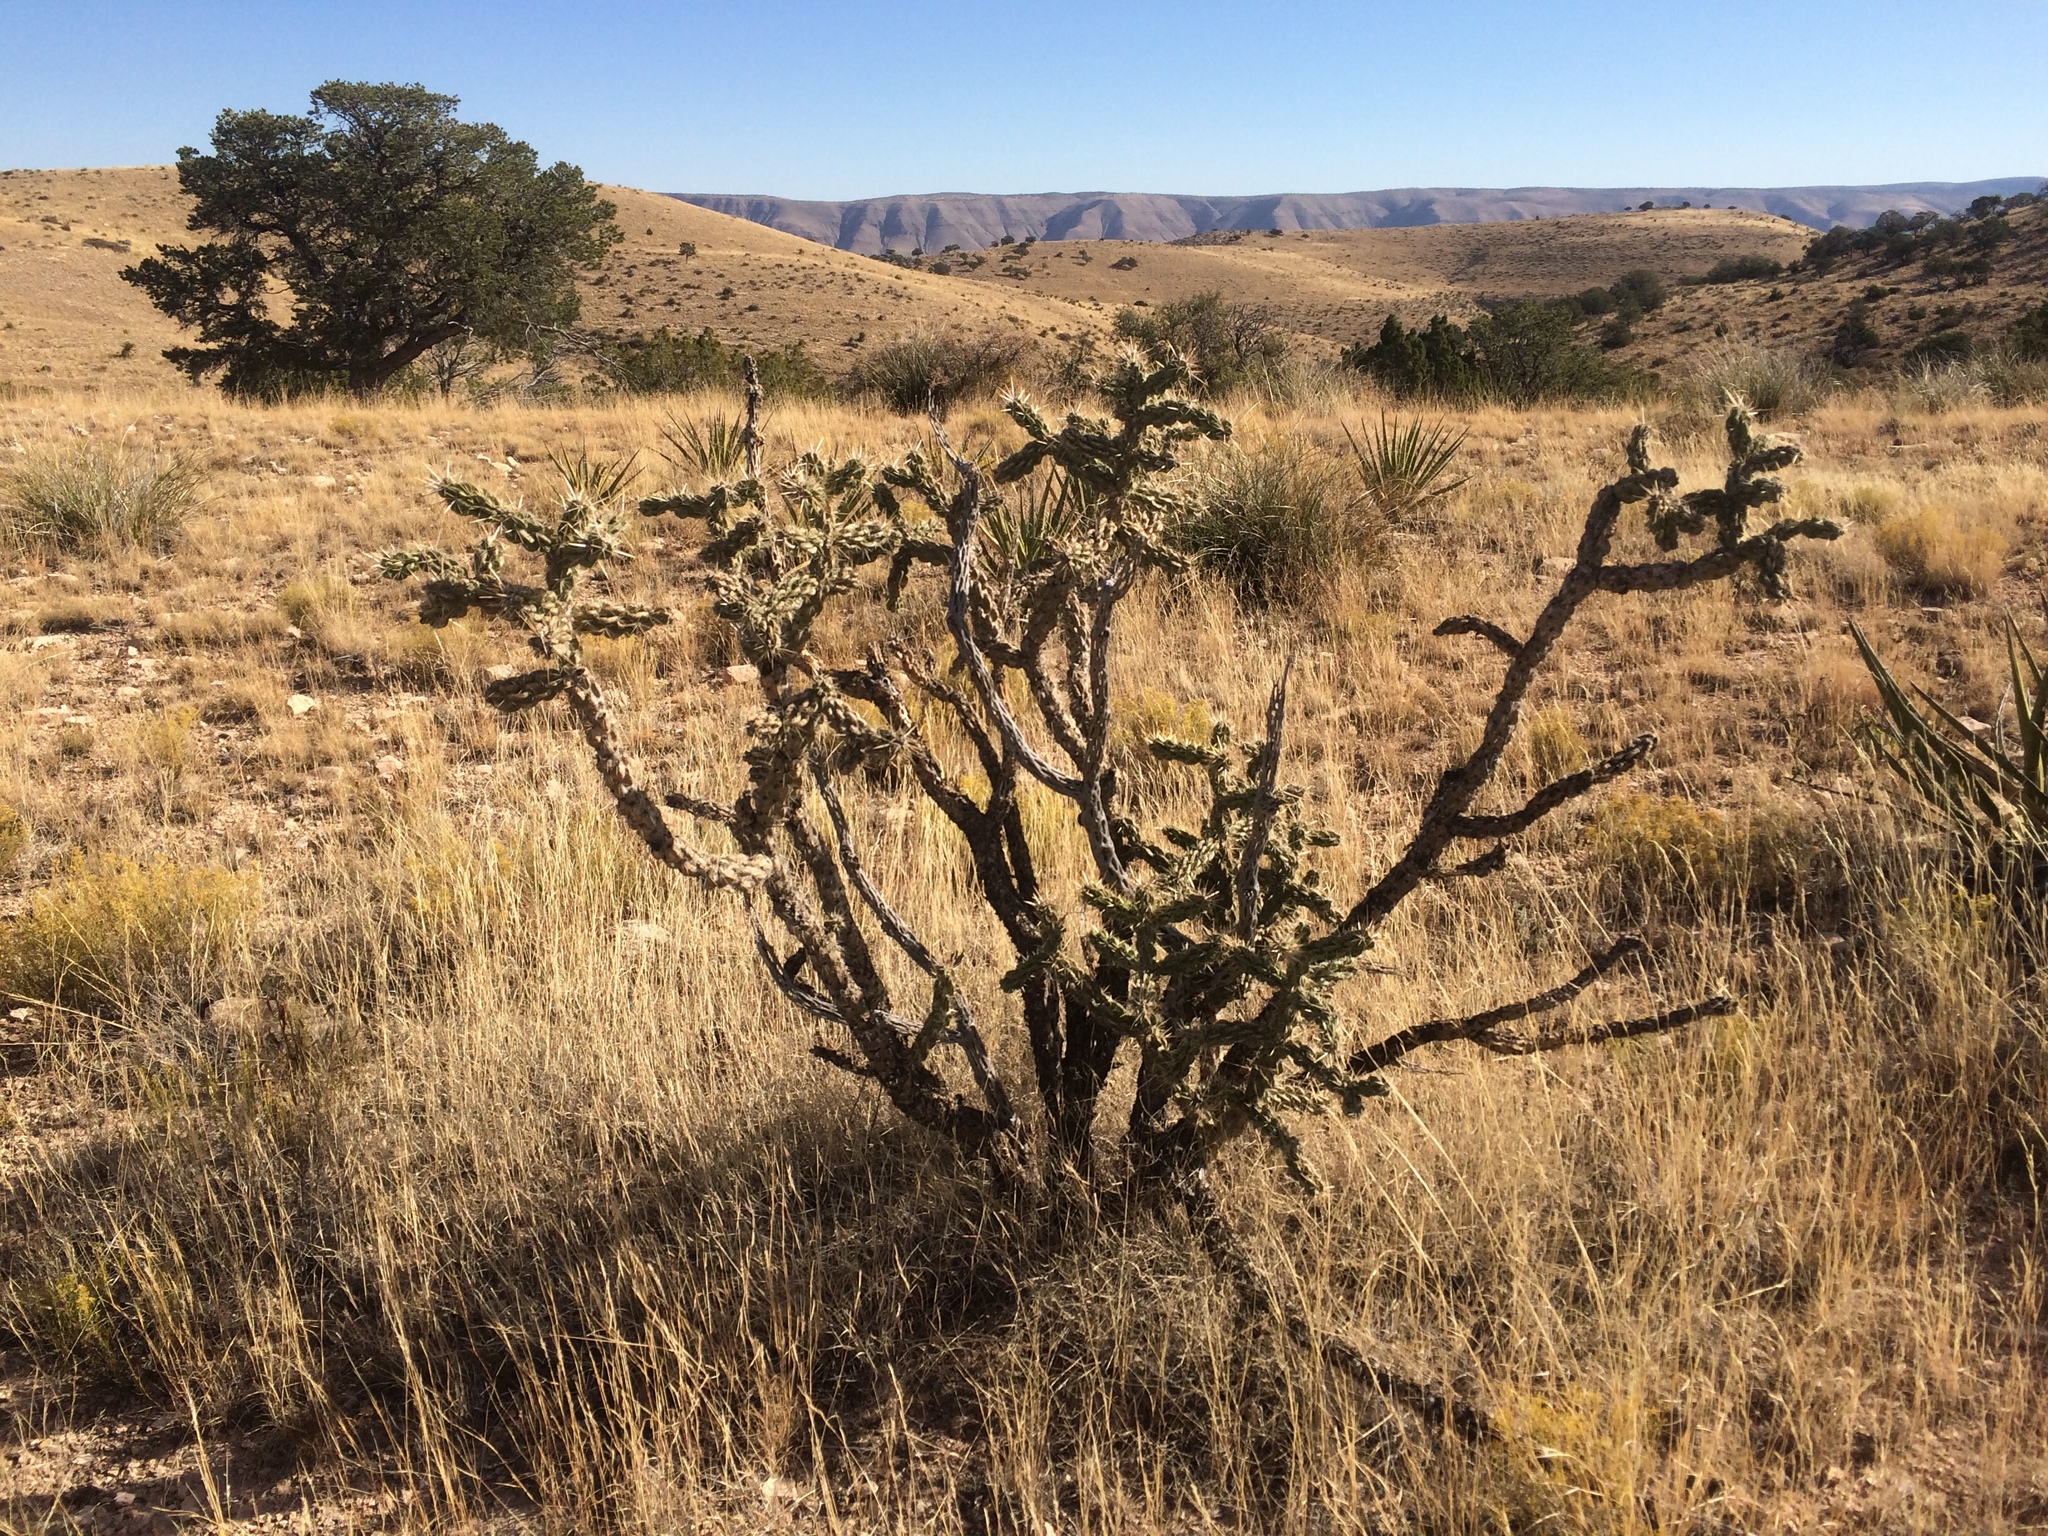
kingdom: Plantae
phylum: Tracheophyta
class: Magnoliopsida
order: Caryophyllales
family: Cactaceae
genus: Cylindropuntia
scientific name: Cylindropuntia imbricata
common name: Candelabrum cactus
